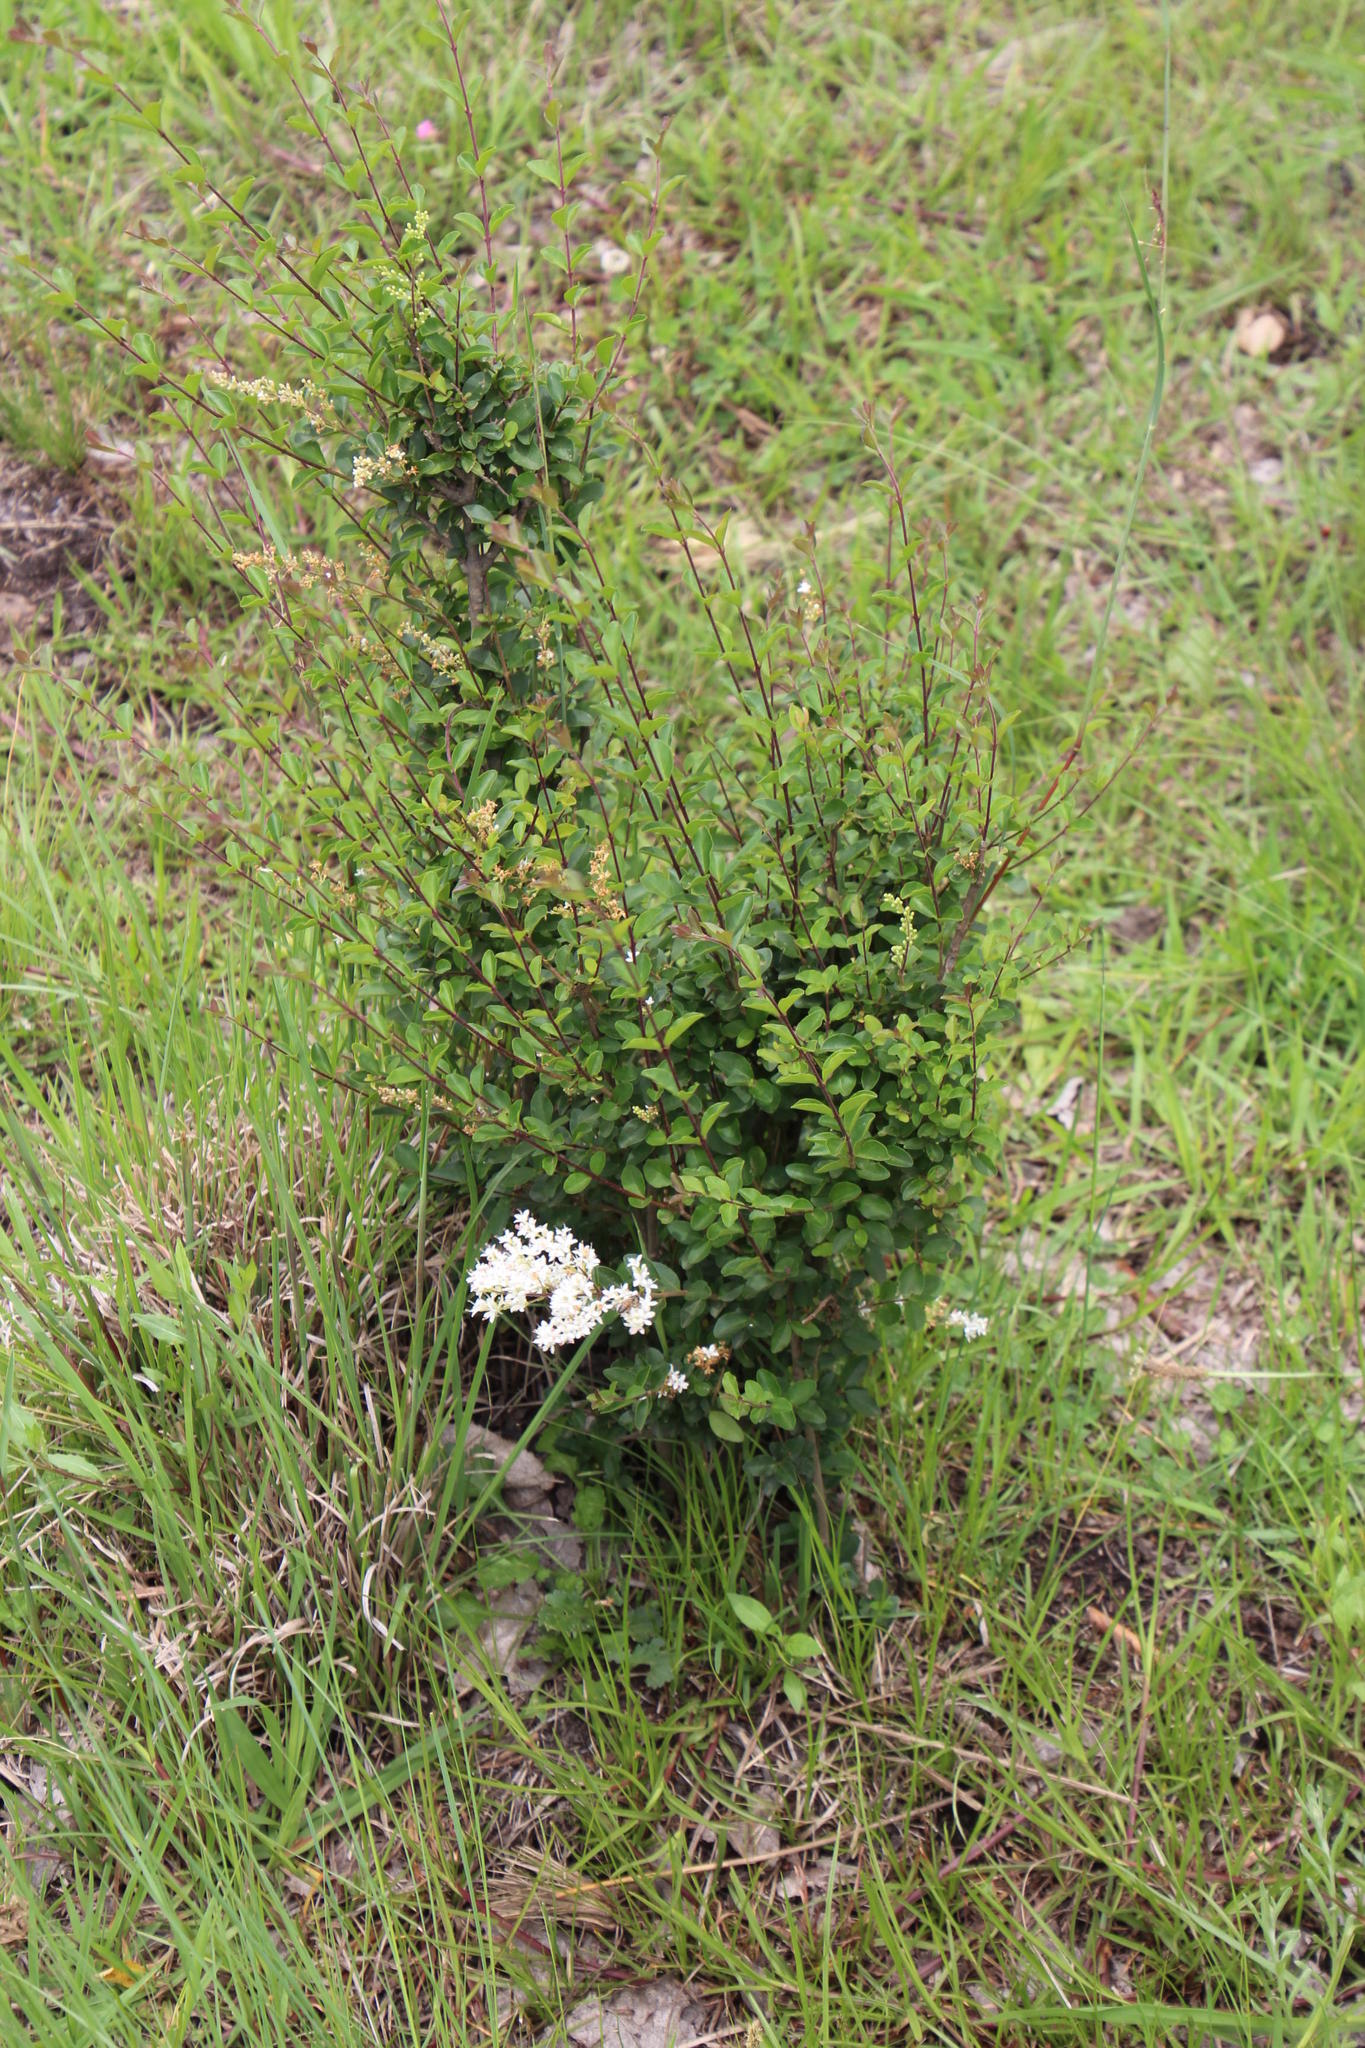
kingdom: Plantae
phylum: Tracheophyta
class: Magnoliopsida
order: Lamiales
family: Oleaceae
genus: Ligustrum
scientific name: Ligustrum sinense
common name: Chinese privet
